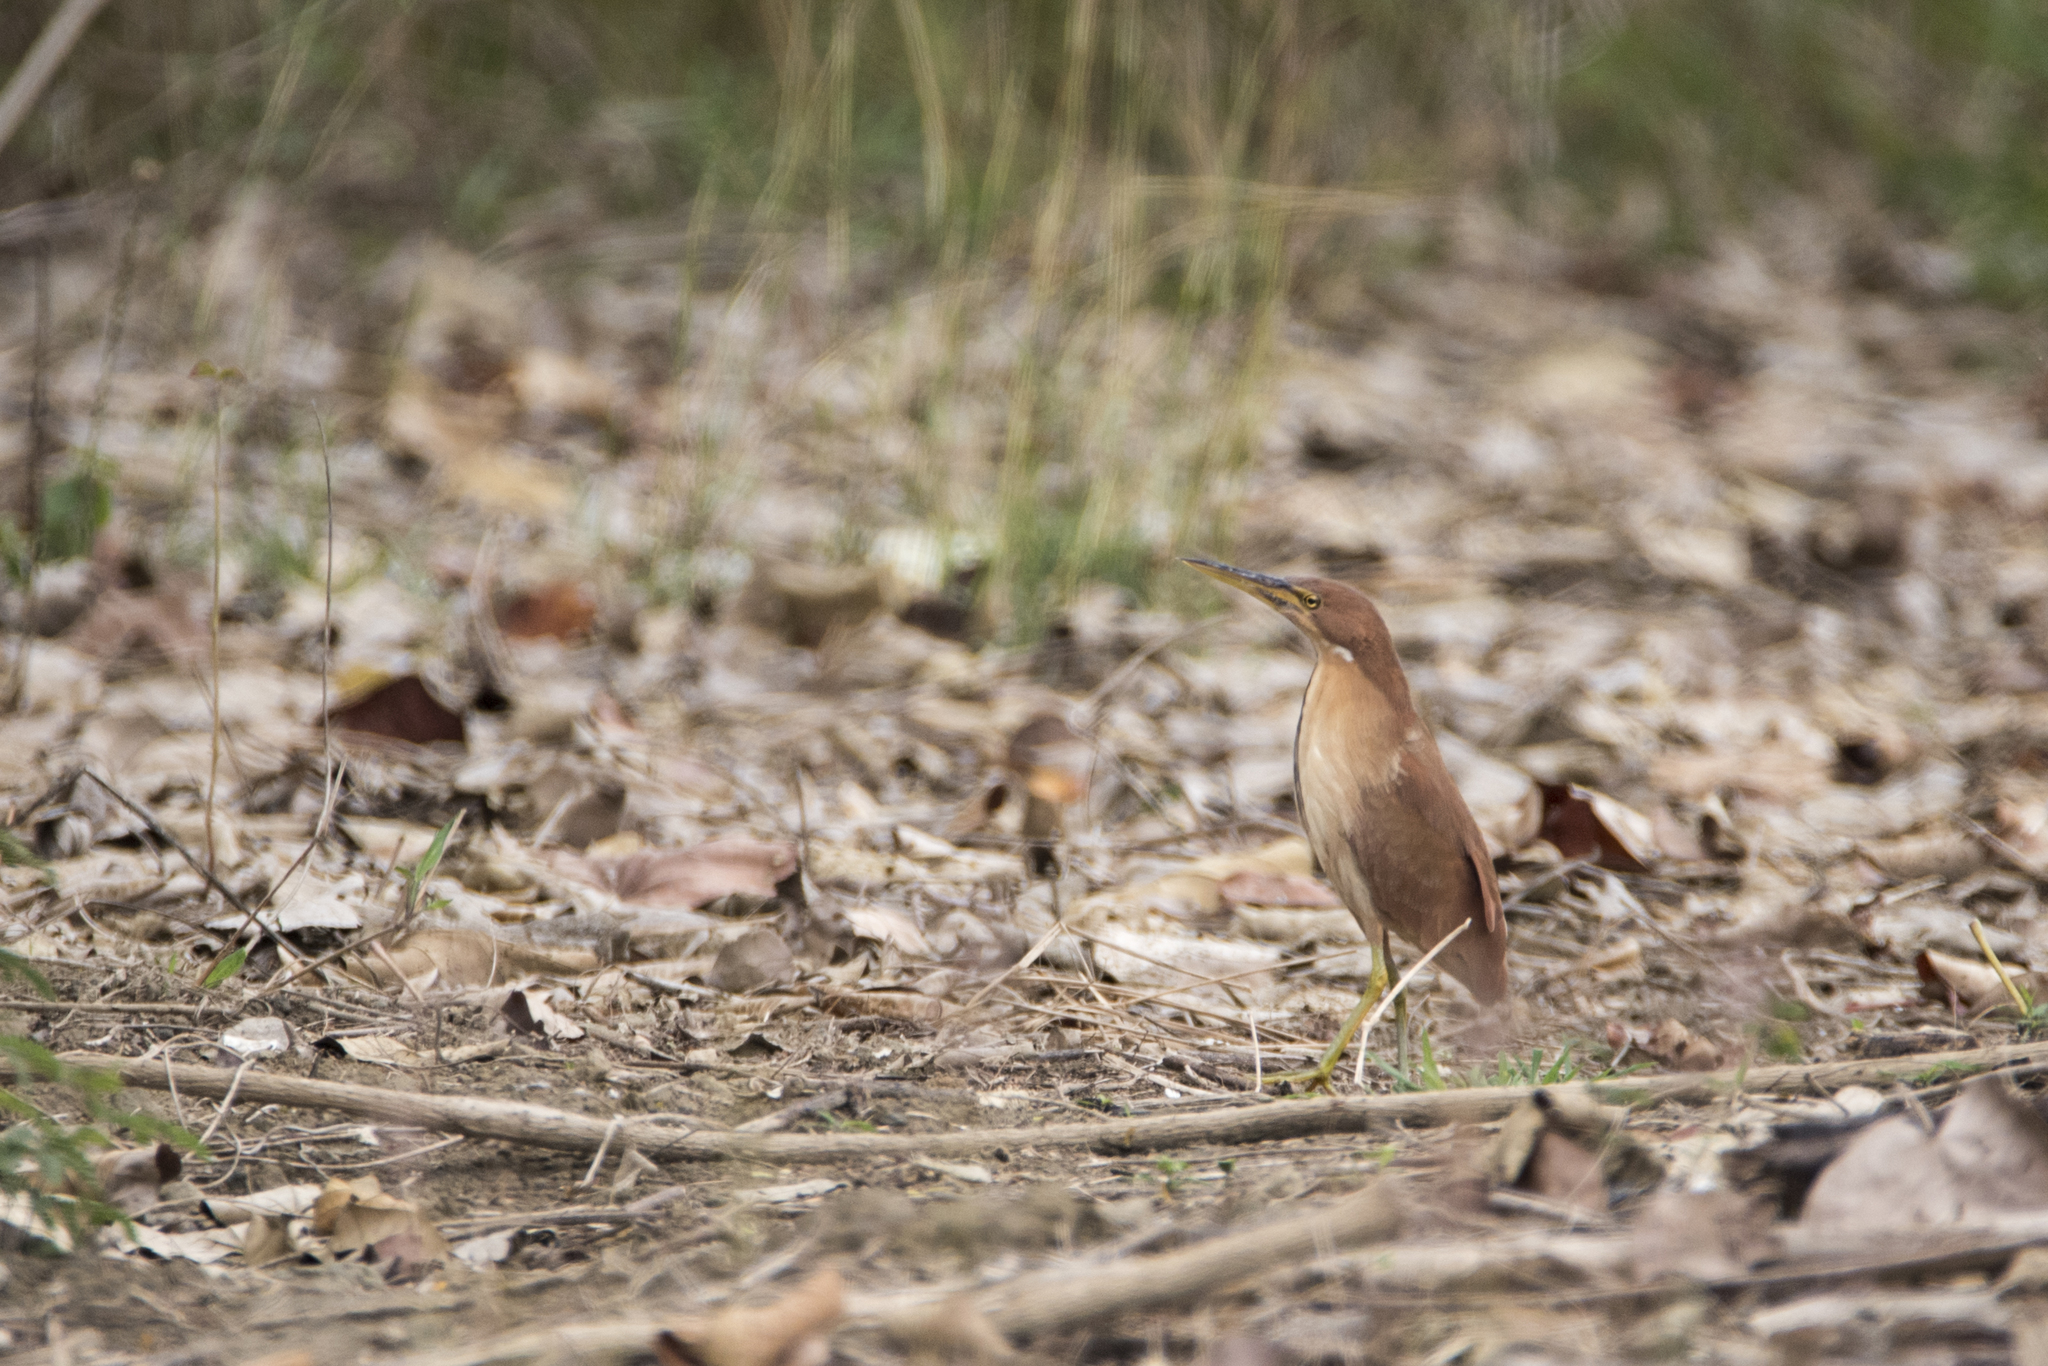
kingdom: Animalia
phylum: Chordata
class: Aves
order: Pelecaniformes
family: Ardeidae
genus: Ixobrychus
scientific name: Ixobrychus cinnamomeus
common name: Cinnamon bittern
